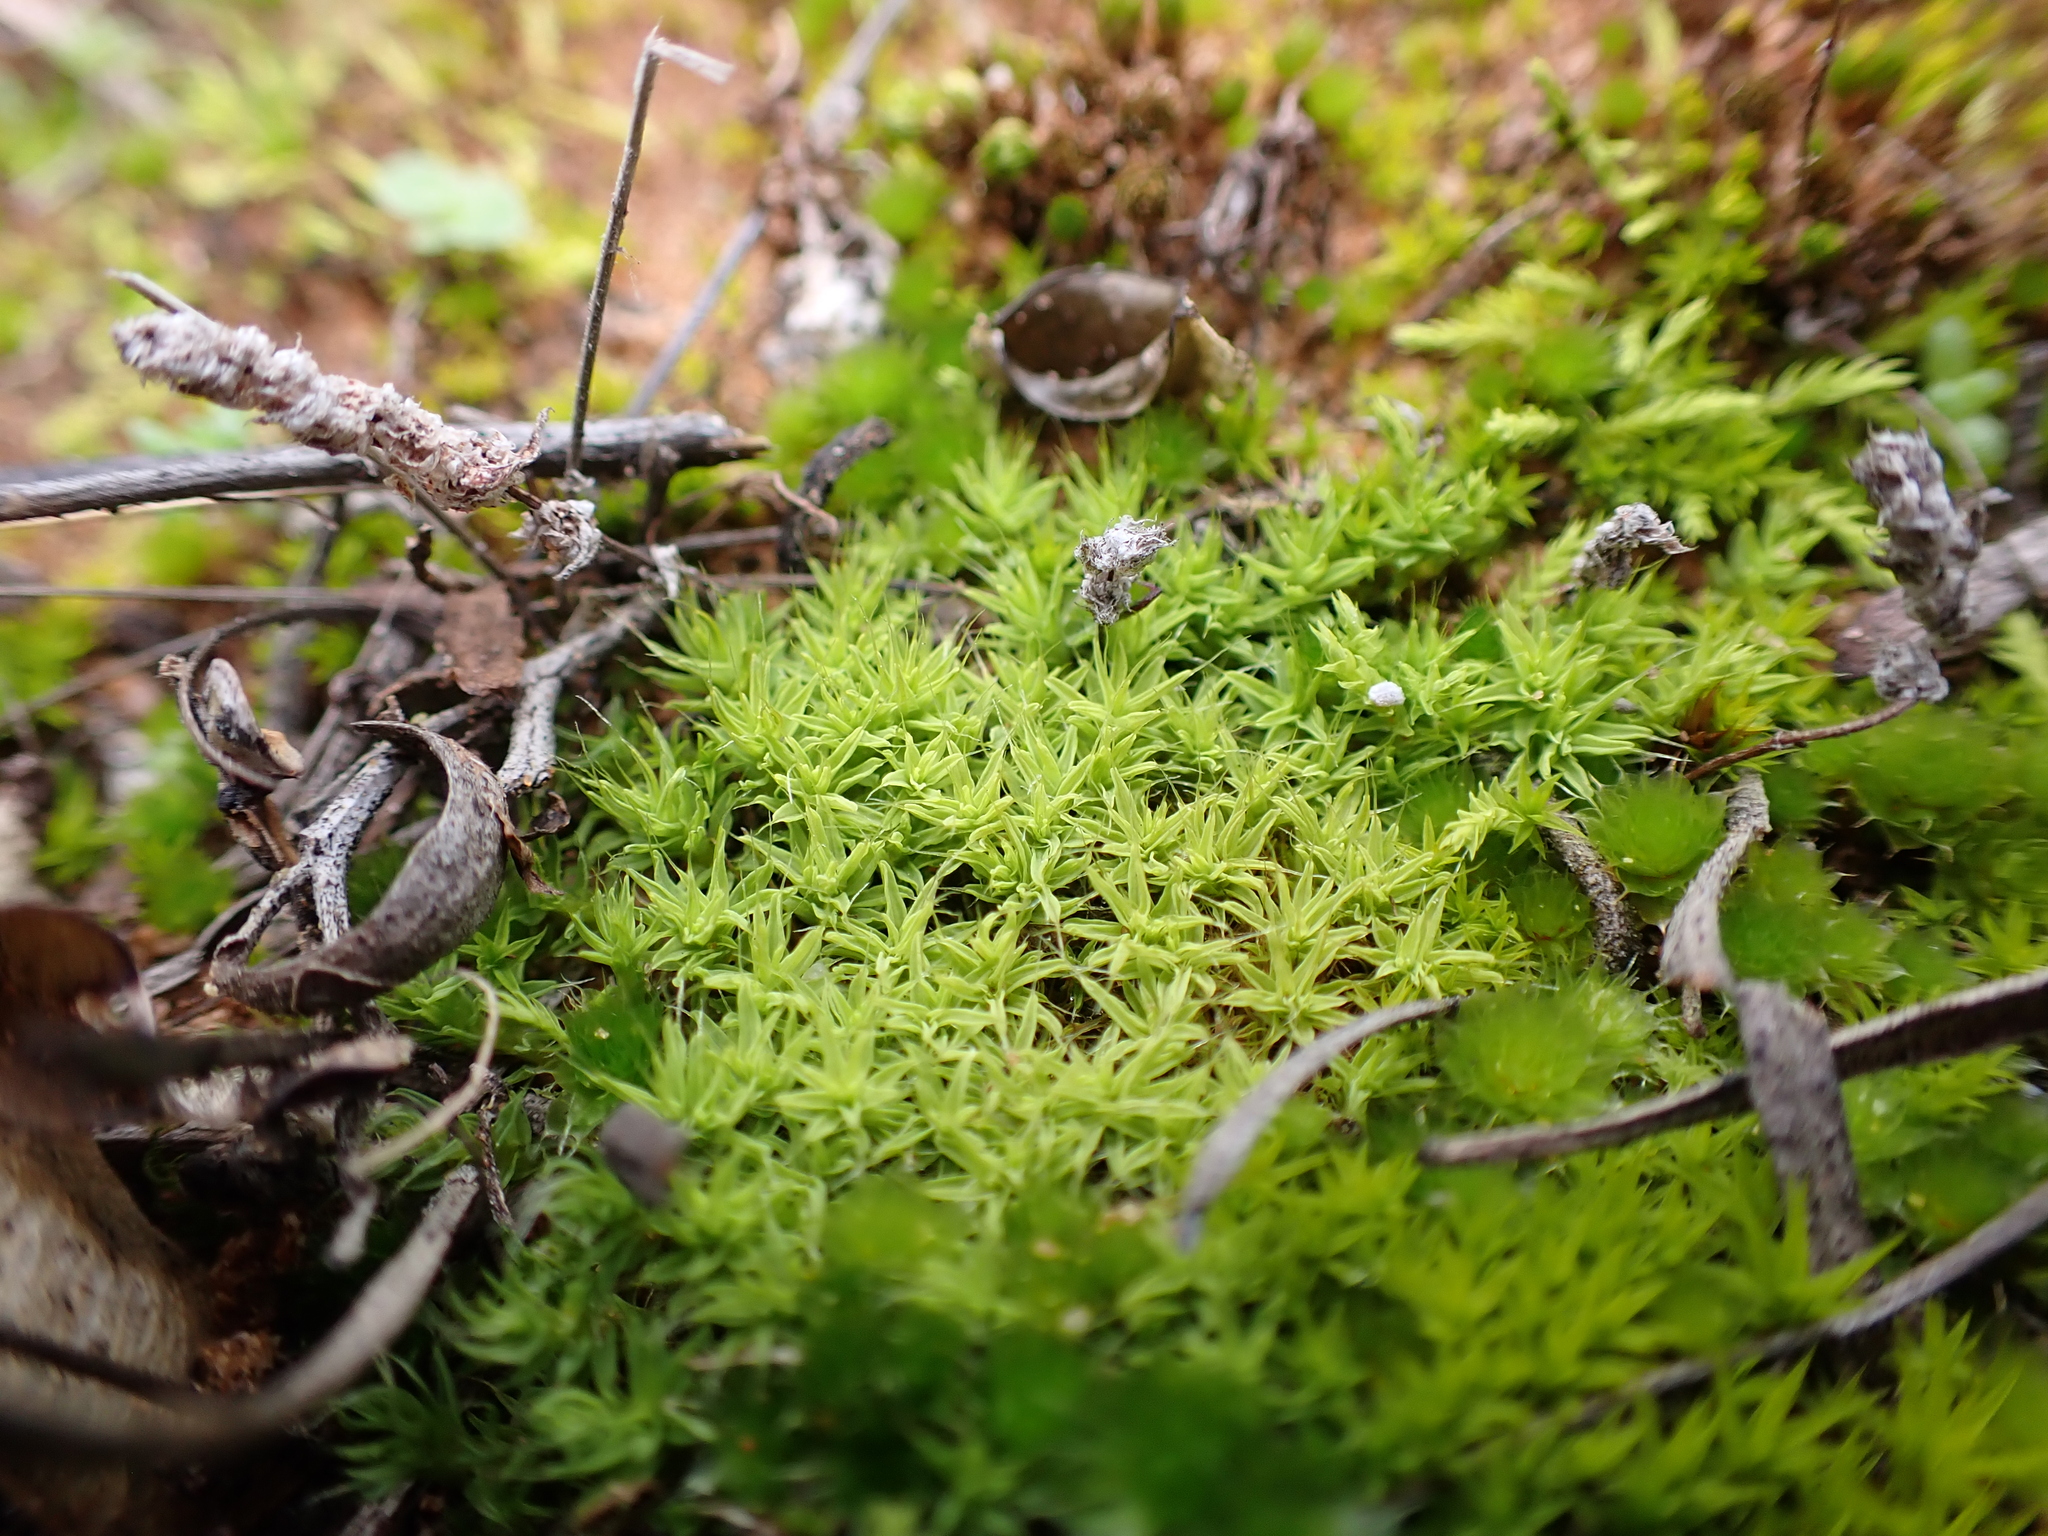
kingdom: Plantae
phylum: Bryophyta
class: Bryopsida
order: Pottiales
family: Pottiaceae
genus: Pseudocrossidium
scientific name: Pseudocrossidium crinitum
